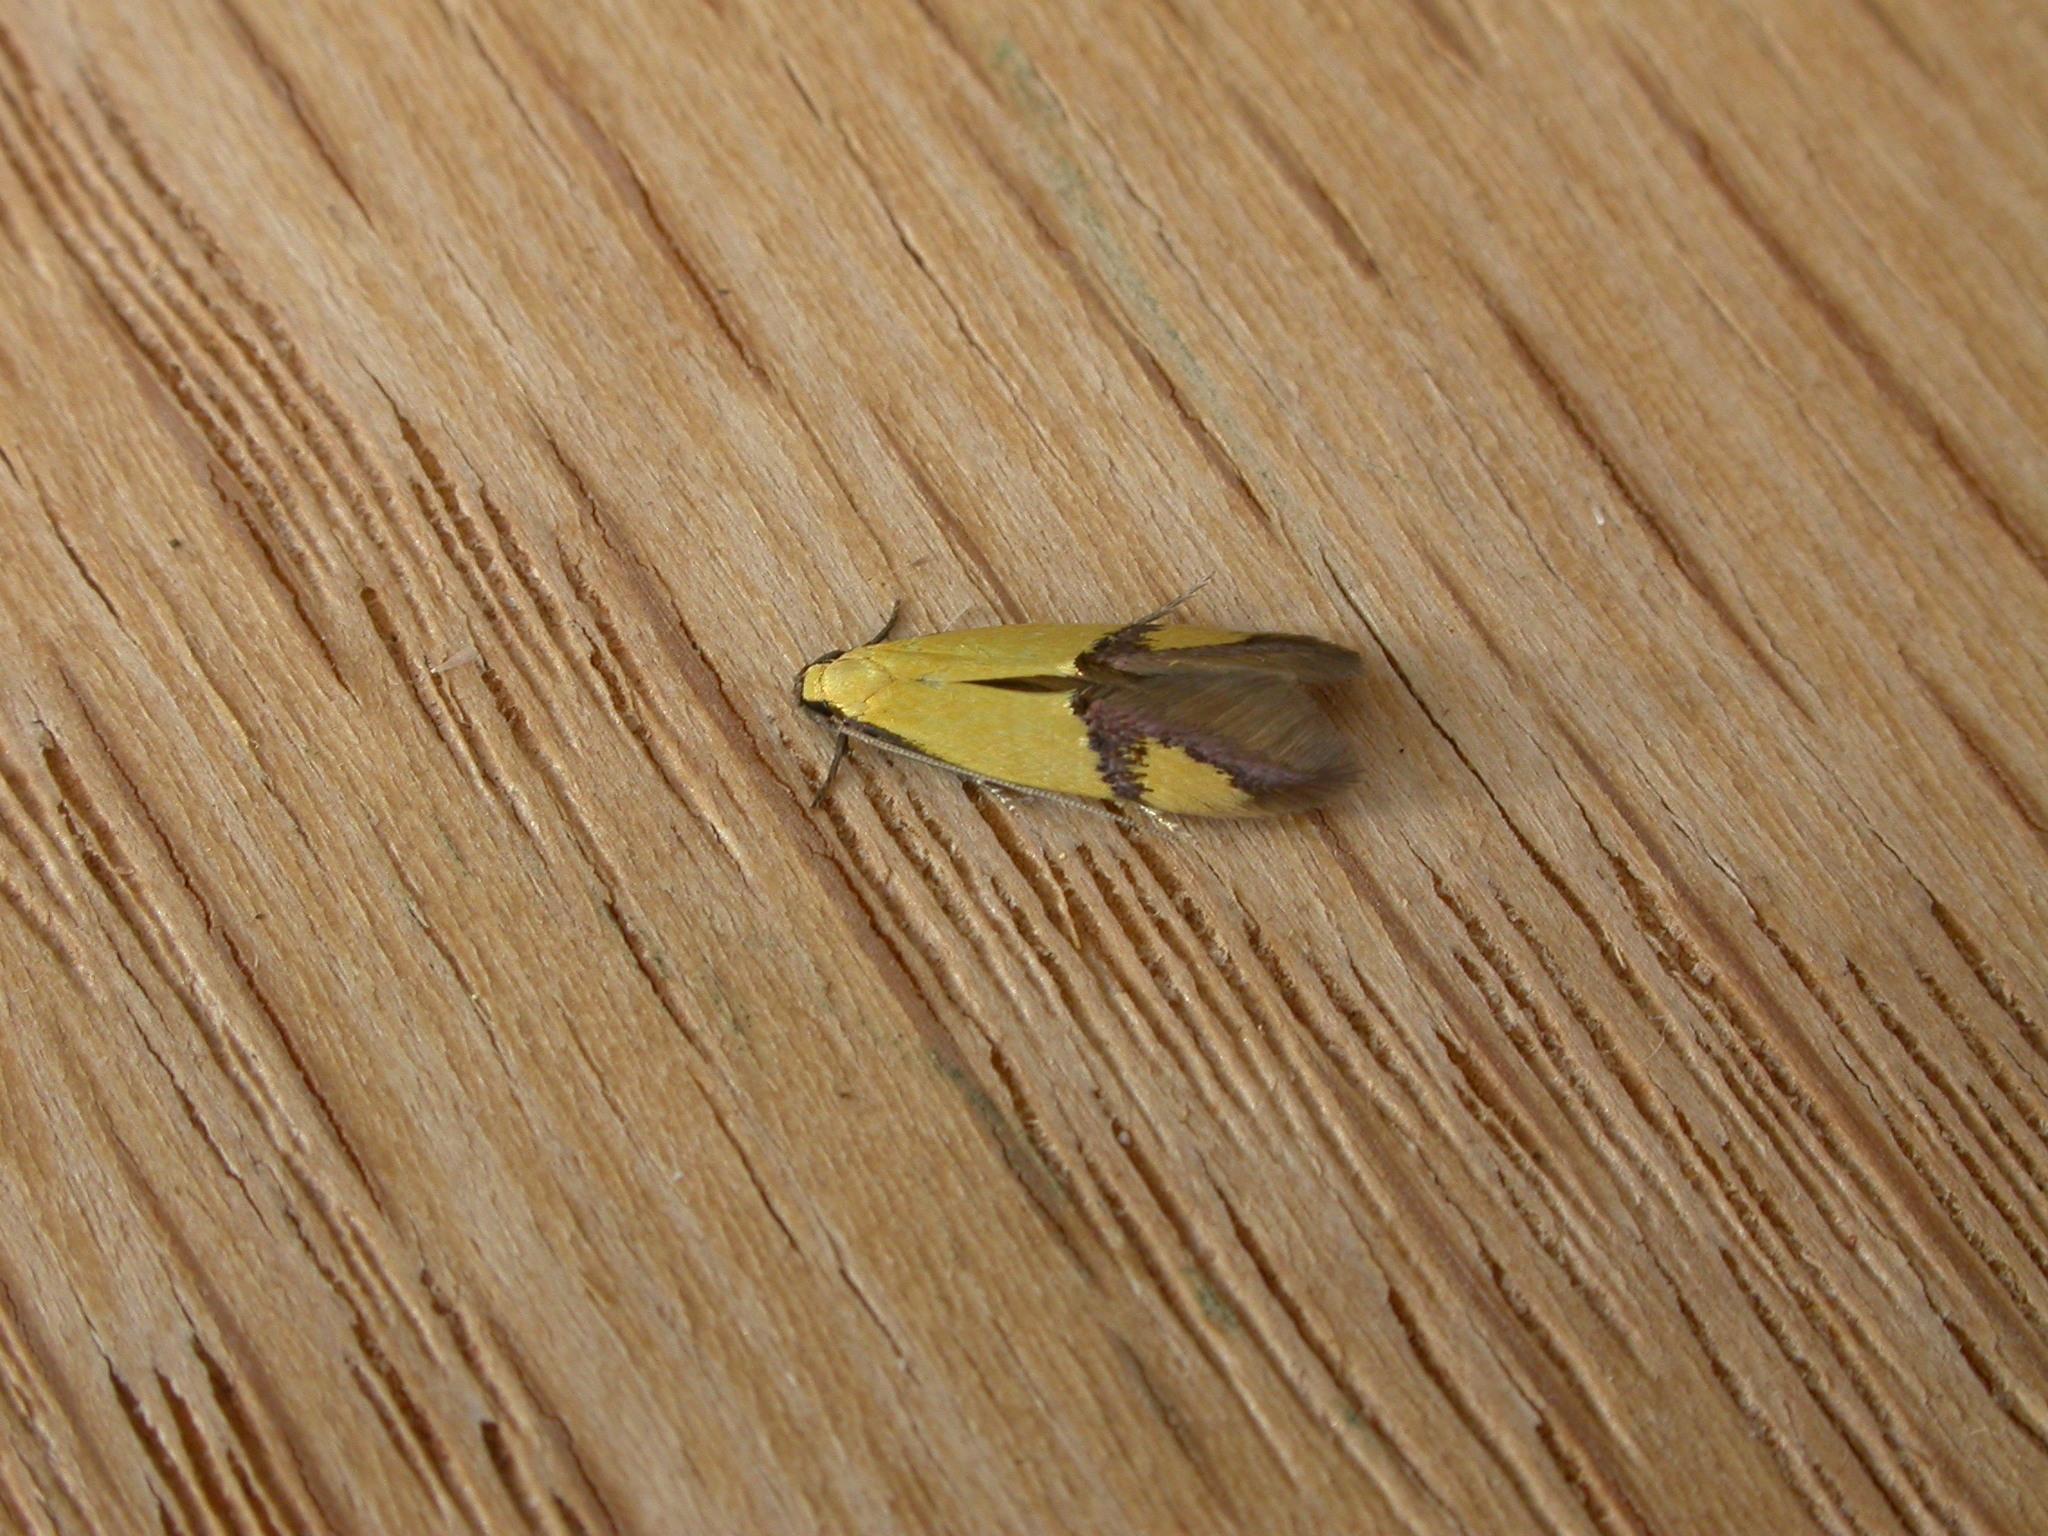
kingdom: Animalia
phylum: Arthropoda
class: Insecta
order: Lepidoptera
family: Tineidae
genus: Opogona
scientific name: Opogona stereodyta
